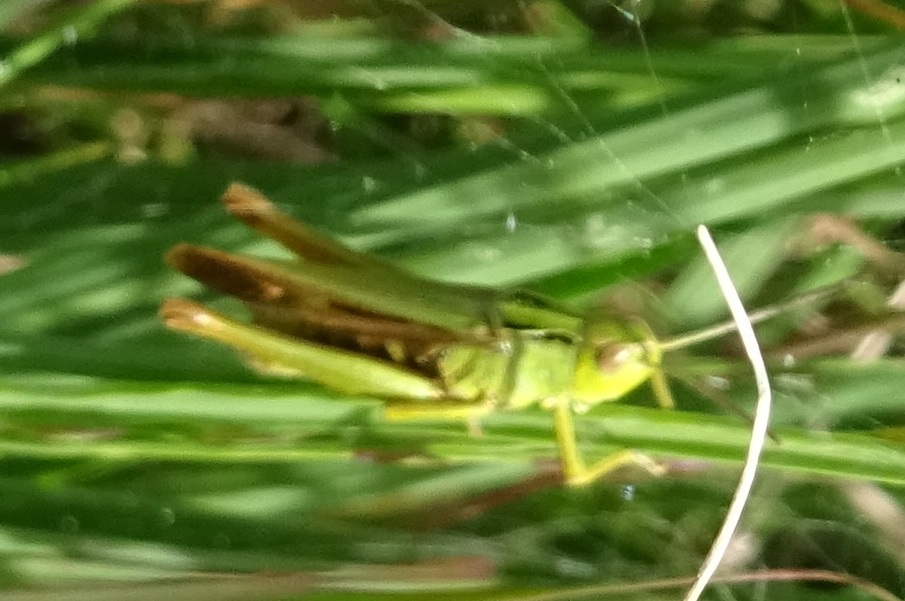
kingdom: Animalia
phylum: Arthropoda
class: Insecta
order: Orthoptera
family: Acrididae
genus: Omocestus
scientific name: Omocestus viridulus
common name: Common green grasshopper
